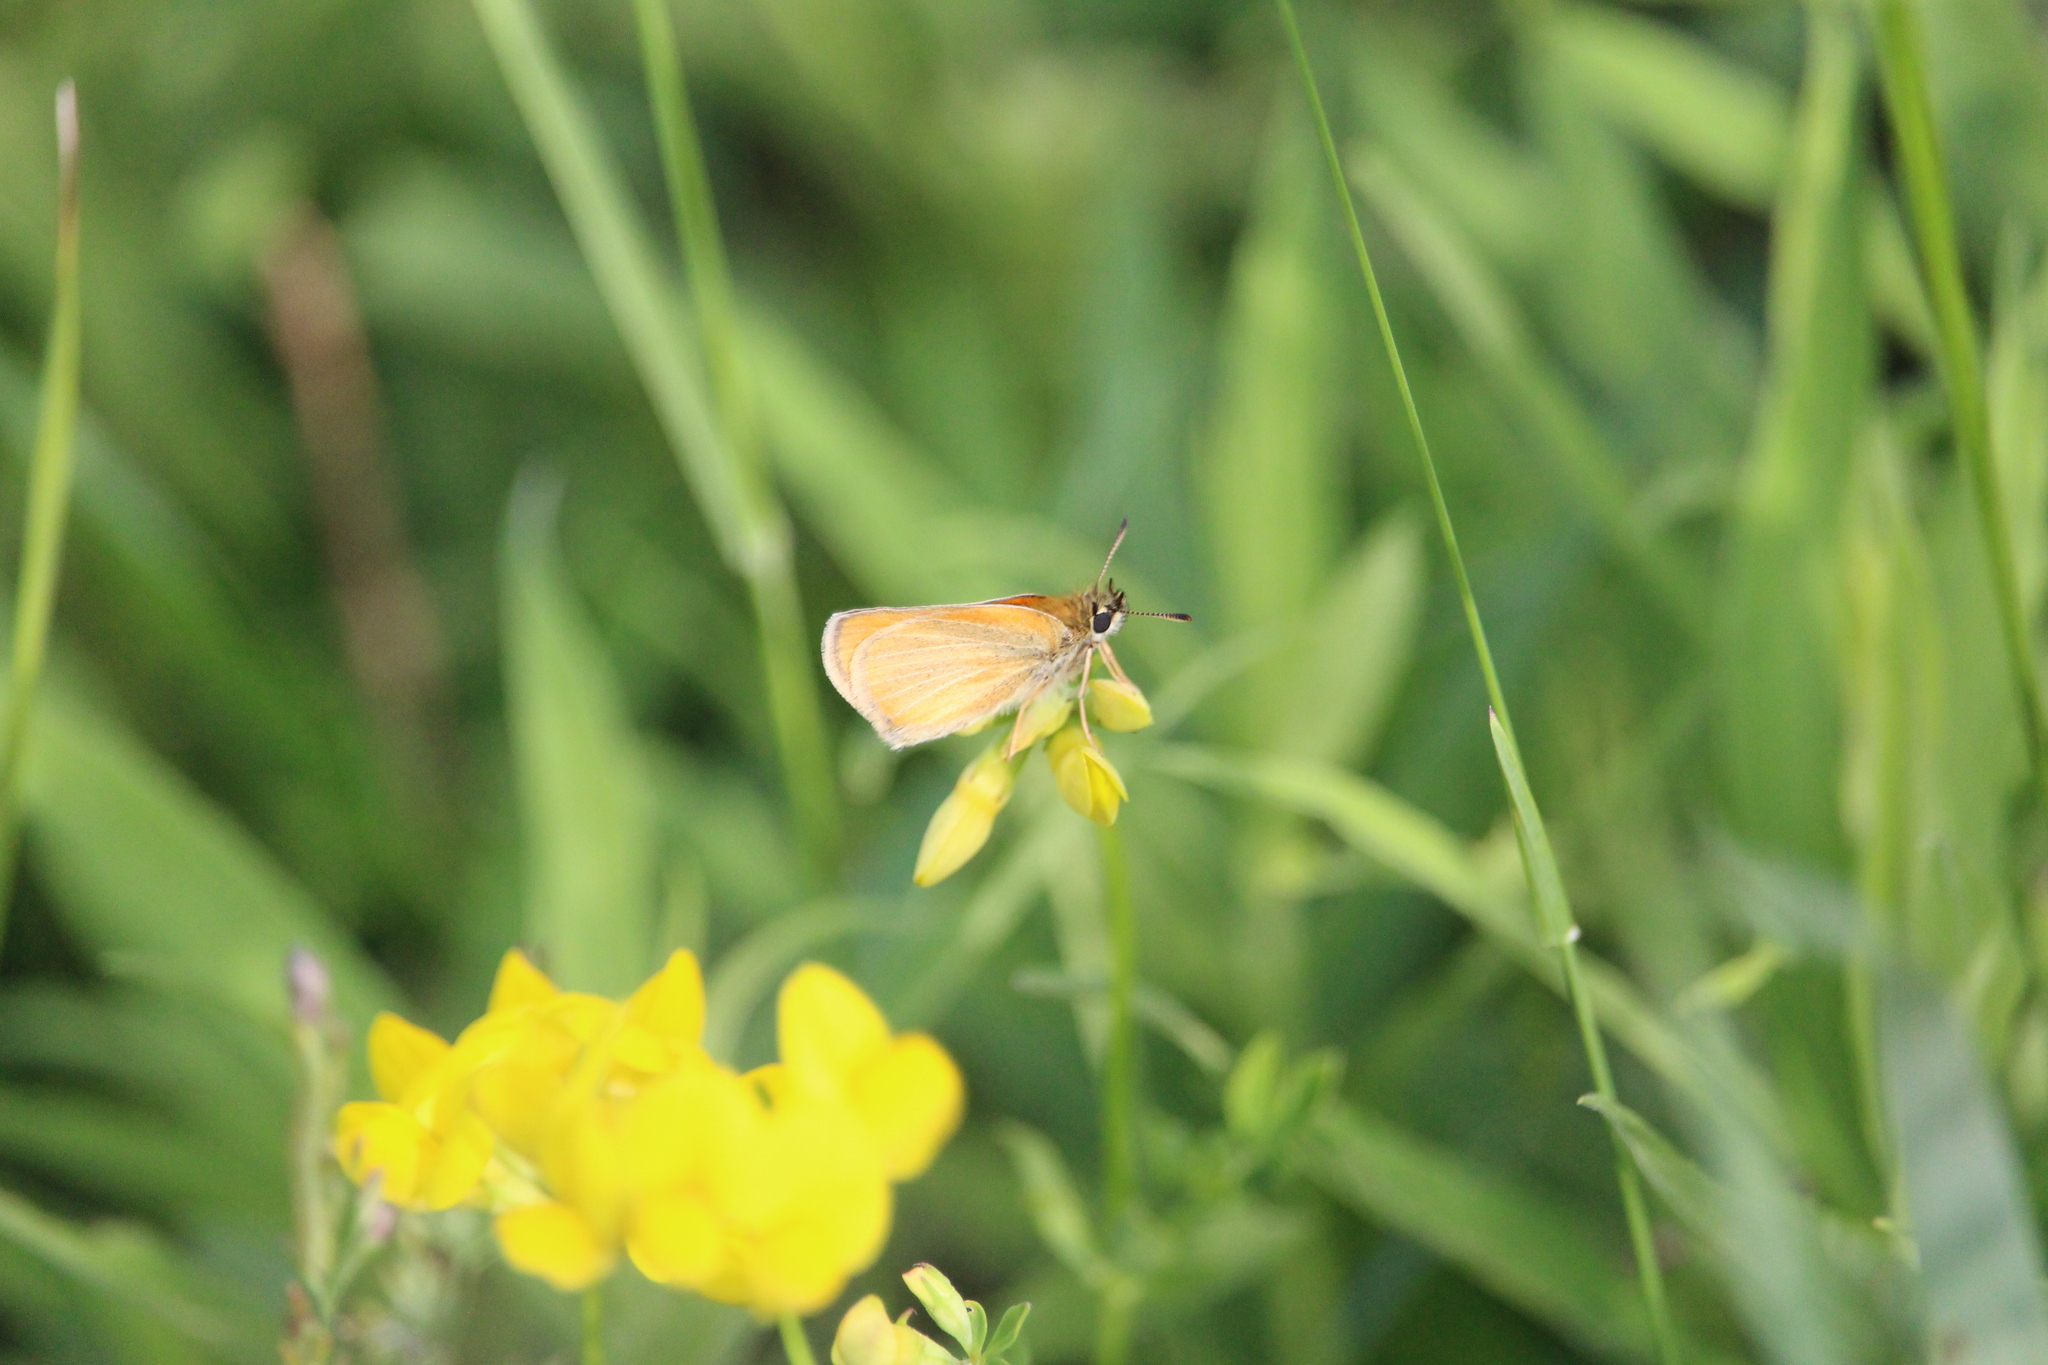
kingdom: Animalia
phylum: Arthropoda
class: Insecta
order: Lepidoptera
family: Hesperiidae
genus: Thymelicus
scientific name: Thymelicus lineola
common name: Essex skipper
